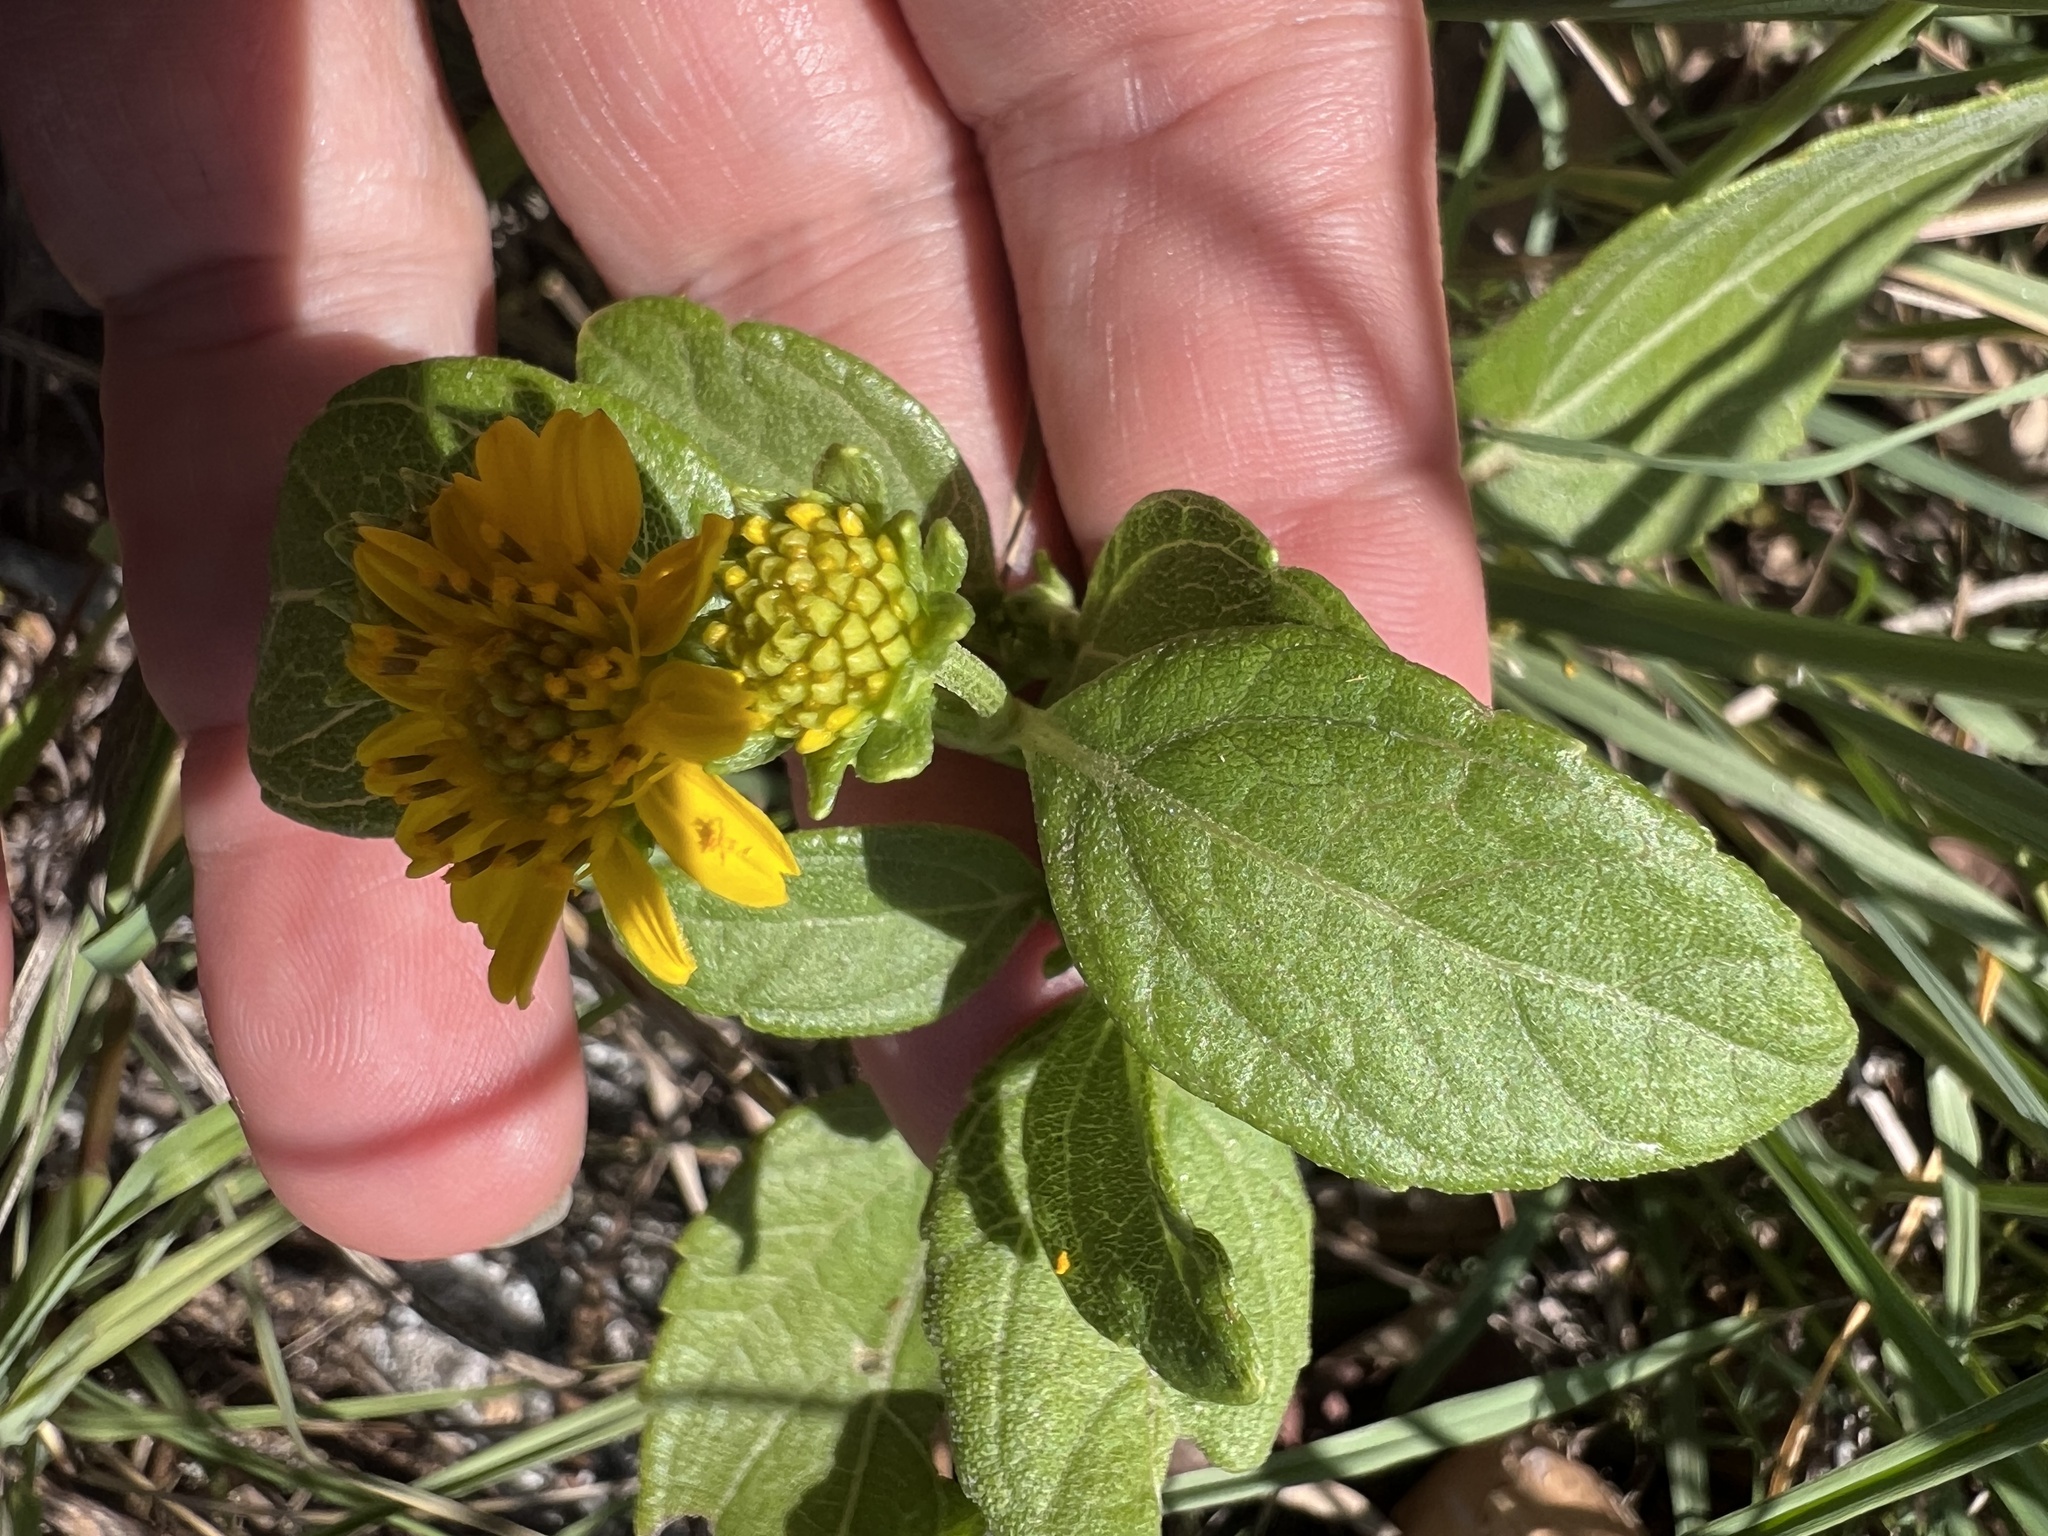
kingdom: Plantae
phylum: Tracheophyta
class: Magnoliopsida
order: Asterales
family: Asteraceae
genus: Wollastonia
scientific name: Wollastonia uniflora
